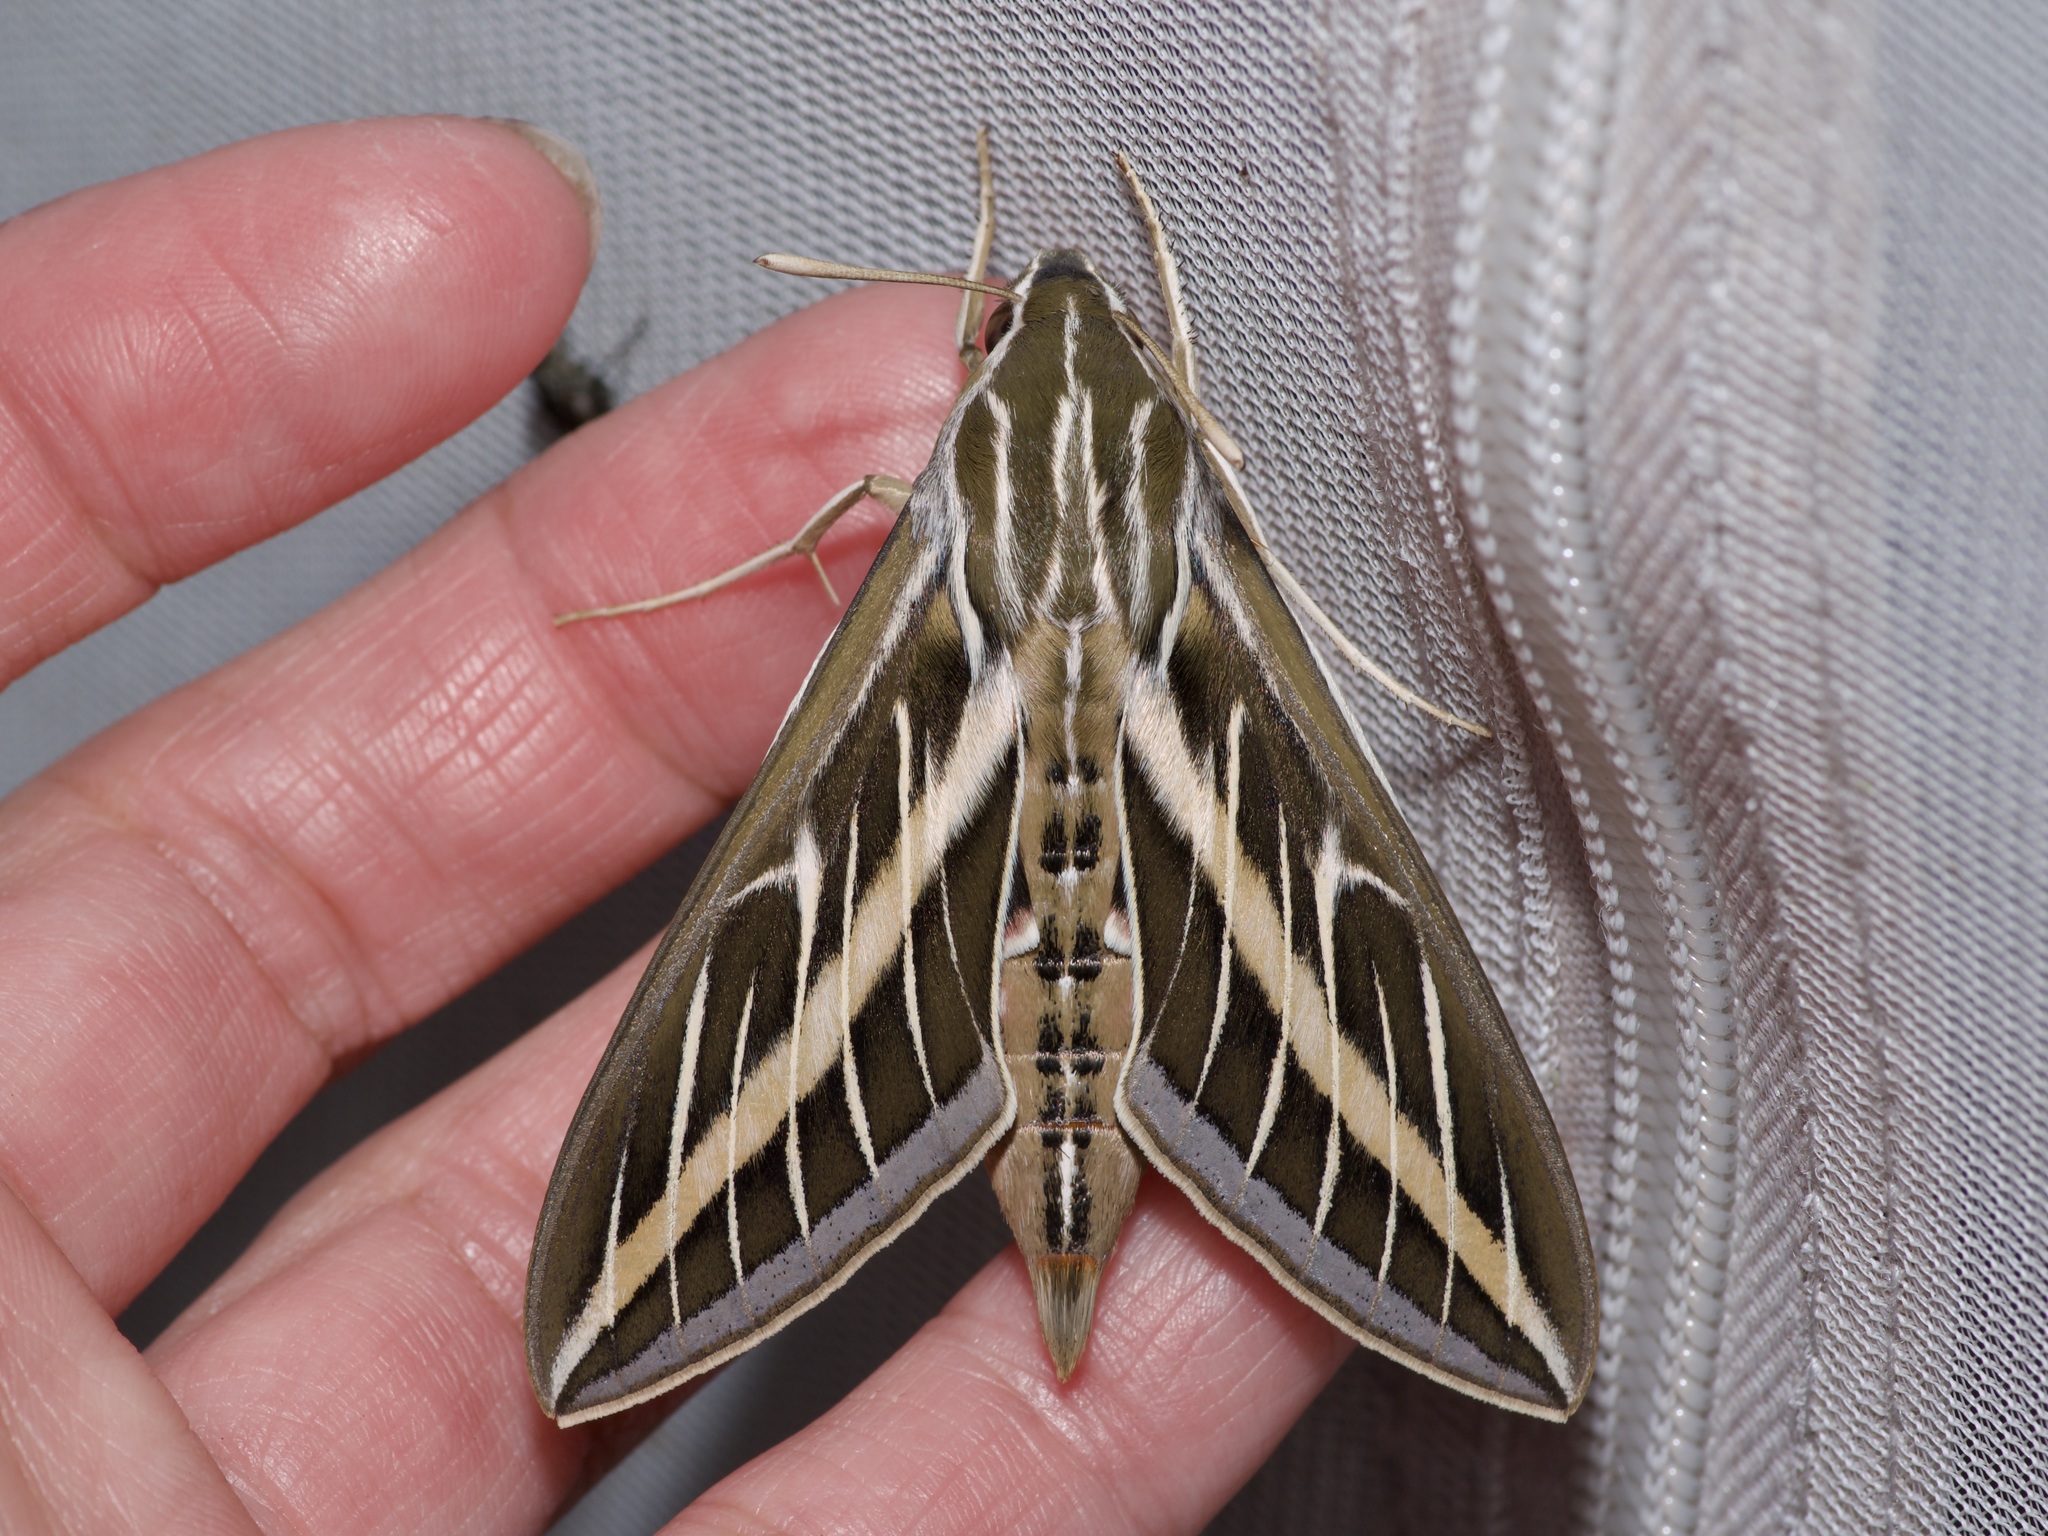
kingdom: Animalia
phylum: Arthropoda
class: Insecta
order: Lepidoptera
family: Sphingidae
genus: Hyles
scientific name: Hyles lineata
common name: White-lined sphinx
